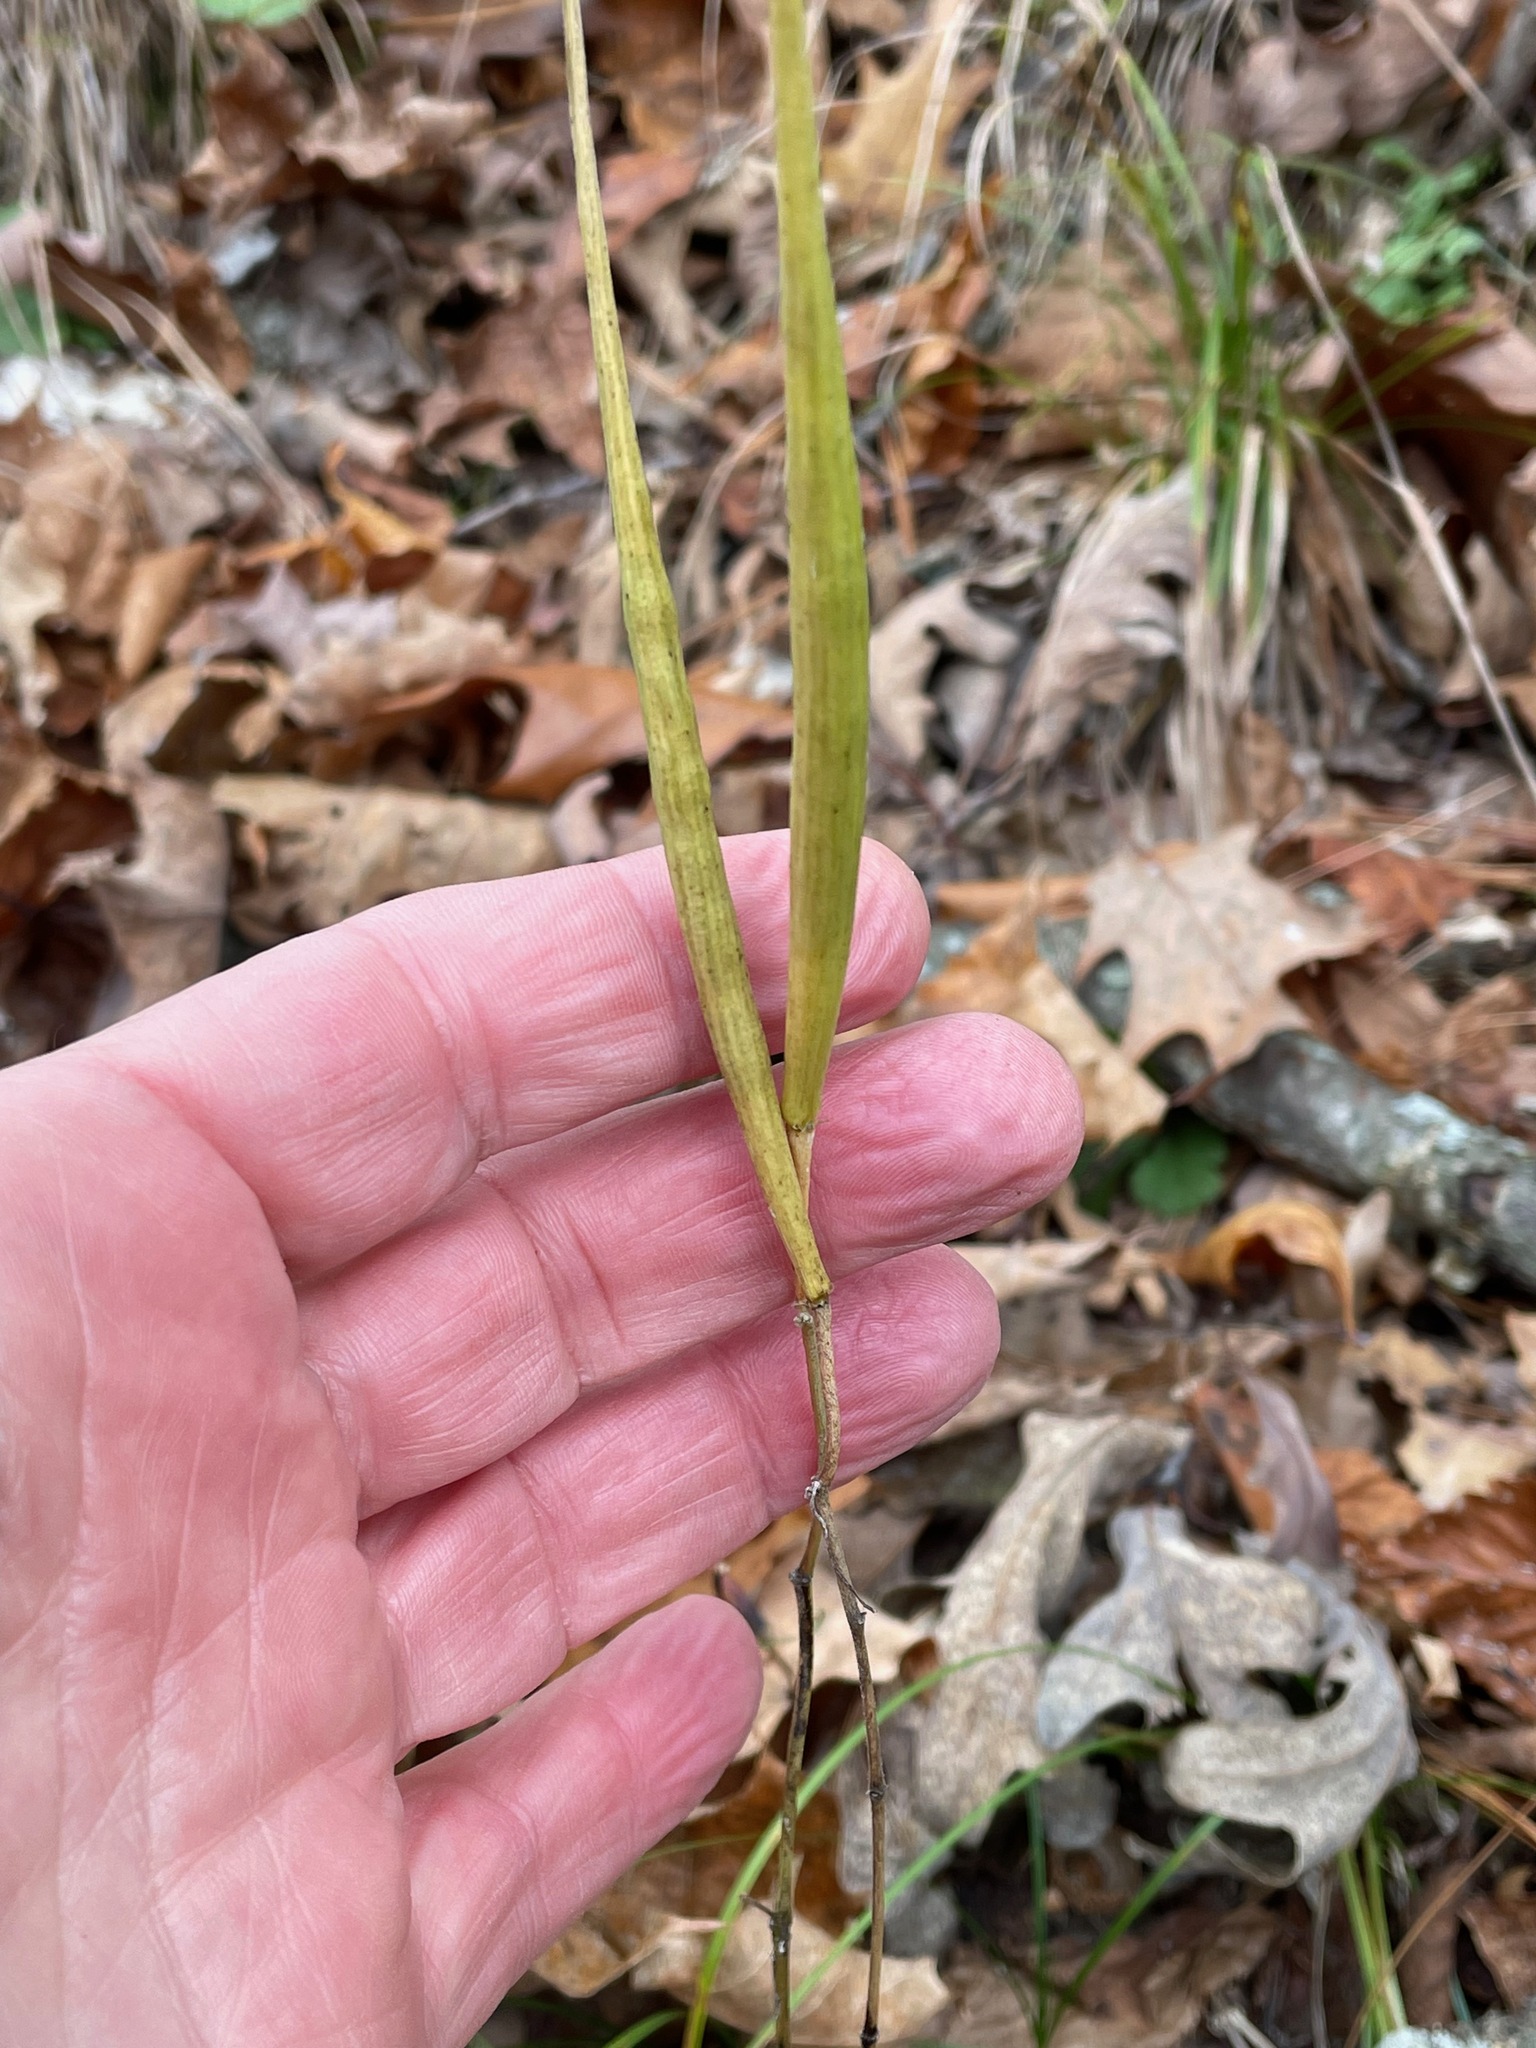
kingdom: Plantae
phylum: Tracheophyta
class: Magnoliopsida
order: Gentianales
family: Apocynaceae
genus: Asclepias
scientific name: Asclepias quadrifolia
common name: Whorled milkweed
